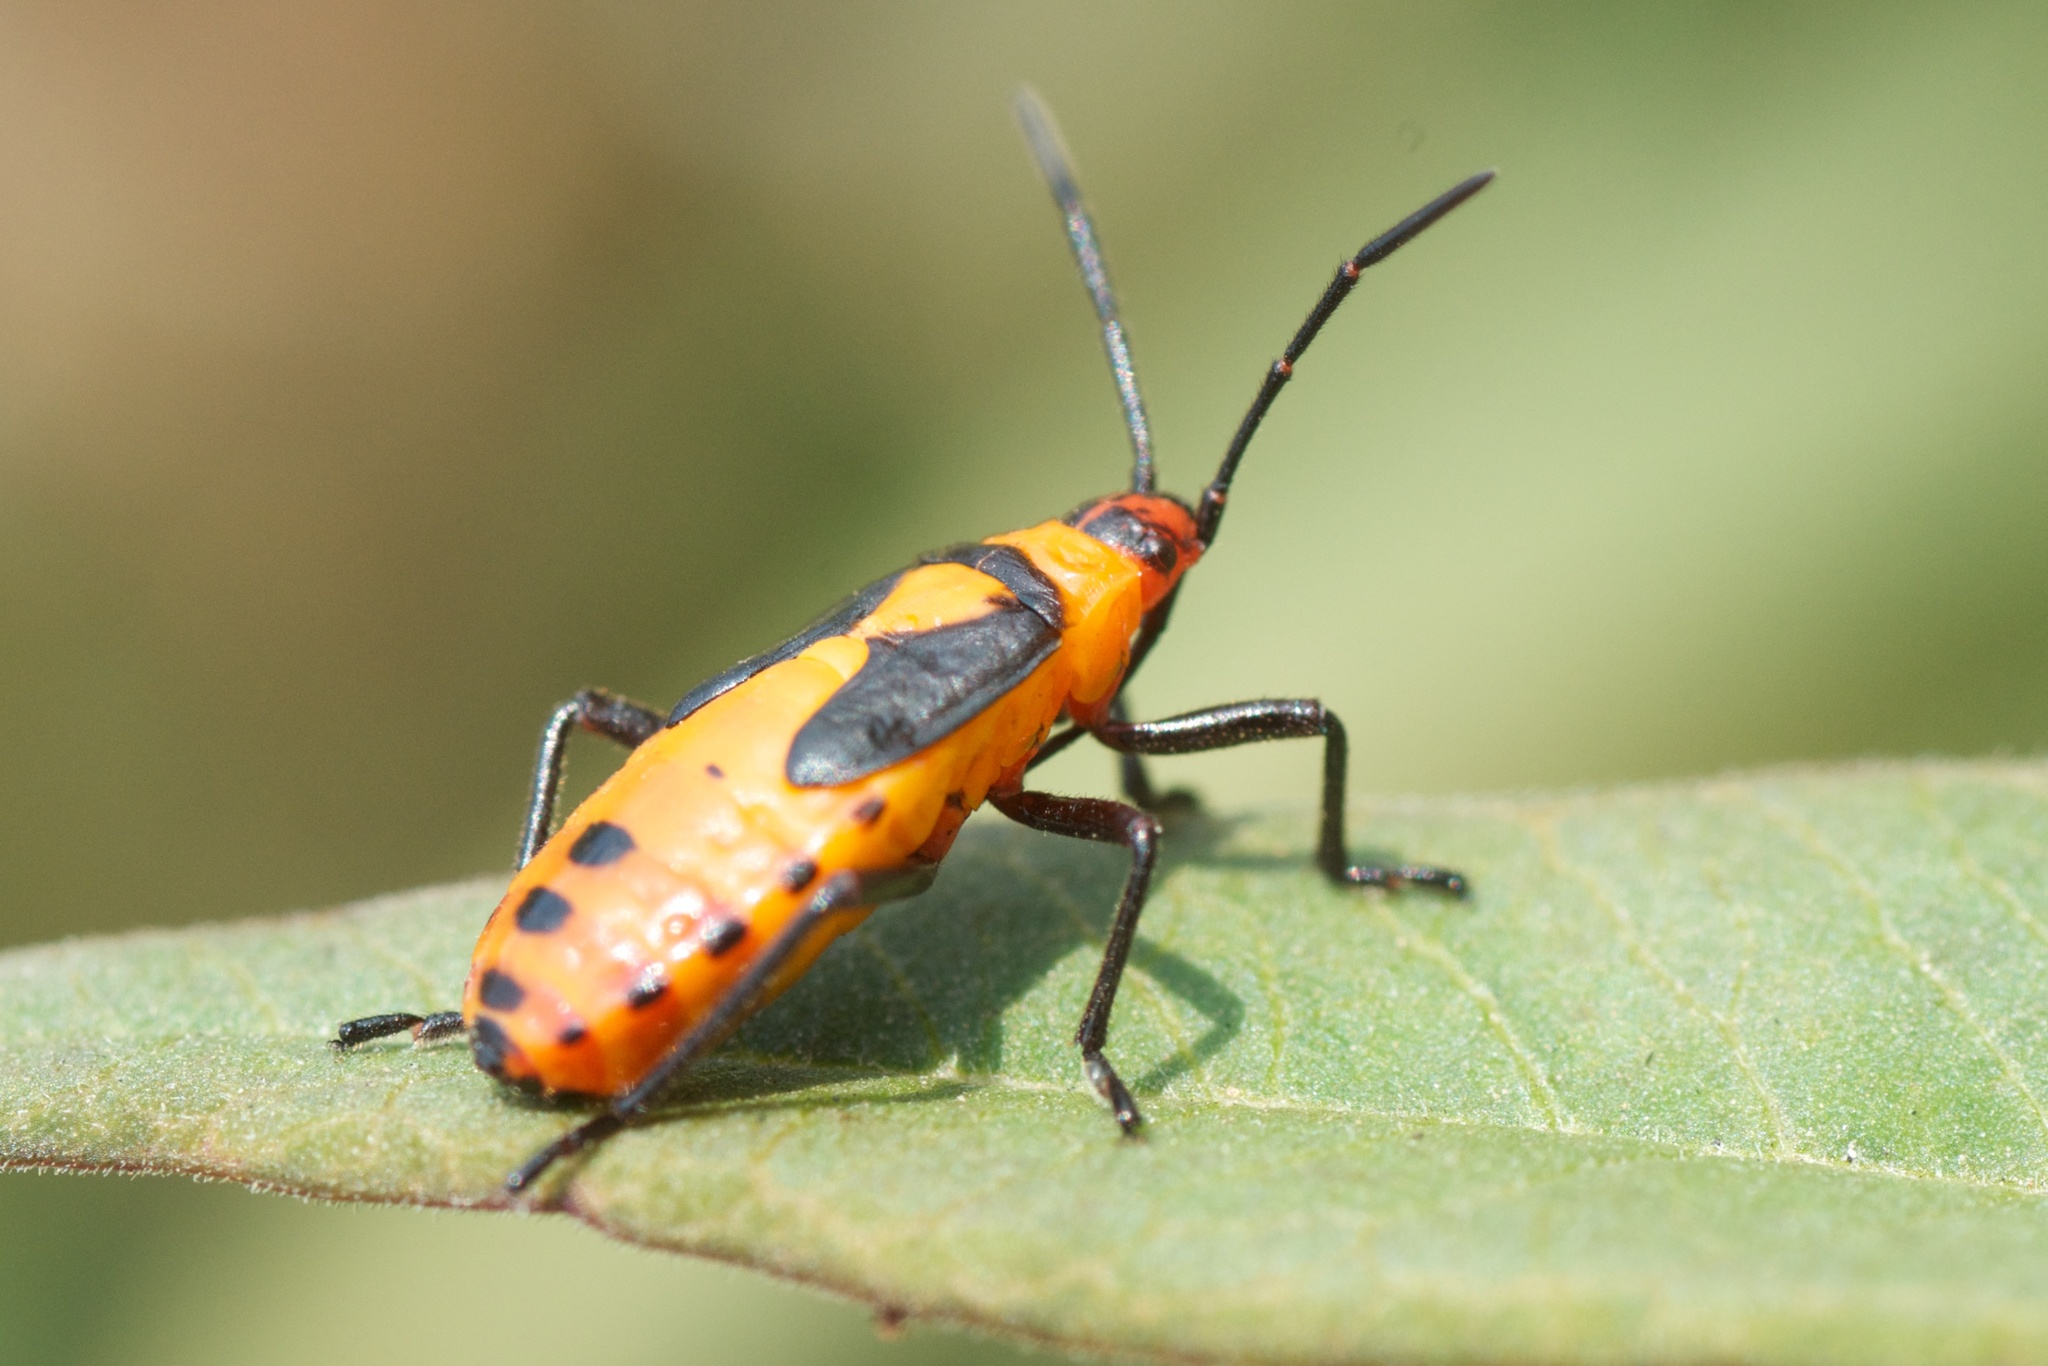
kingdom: Animalia
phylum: Arthropoda
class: Insecta
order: Hemiptera
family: Lygaeidae
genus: Oncopeltus
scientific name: Oncopeltus fasciatus
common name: Large milkweed bug
